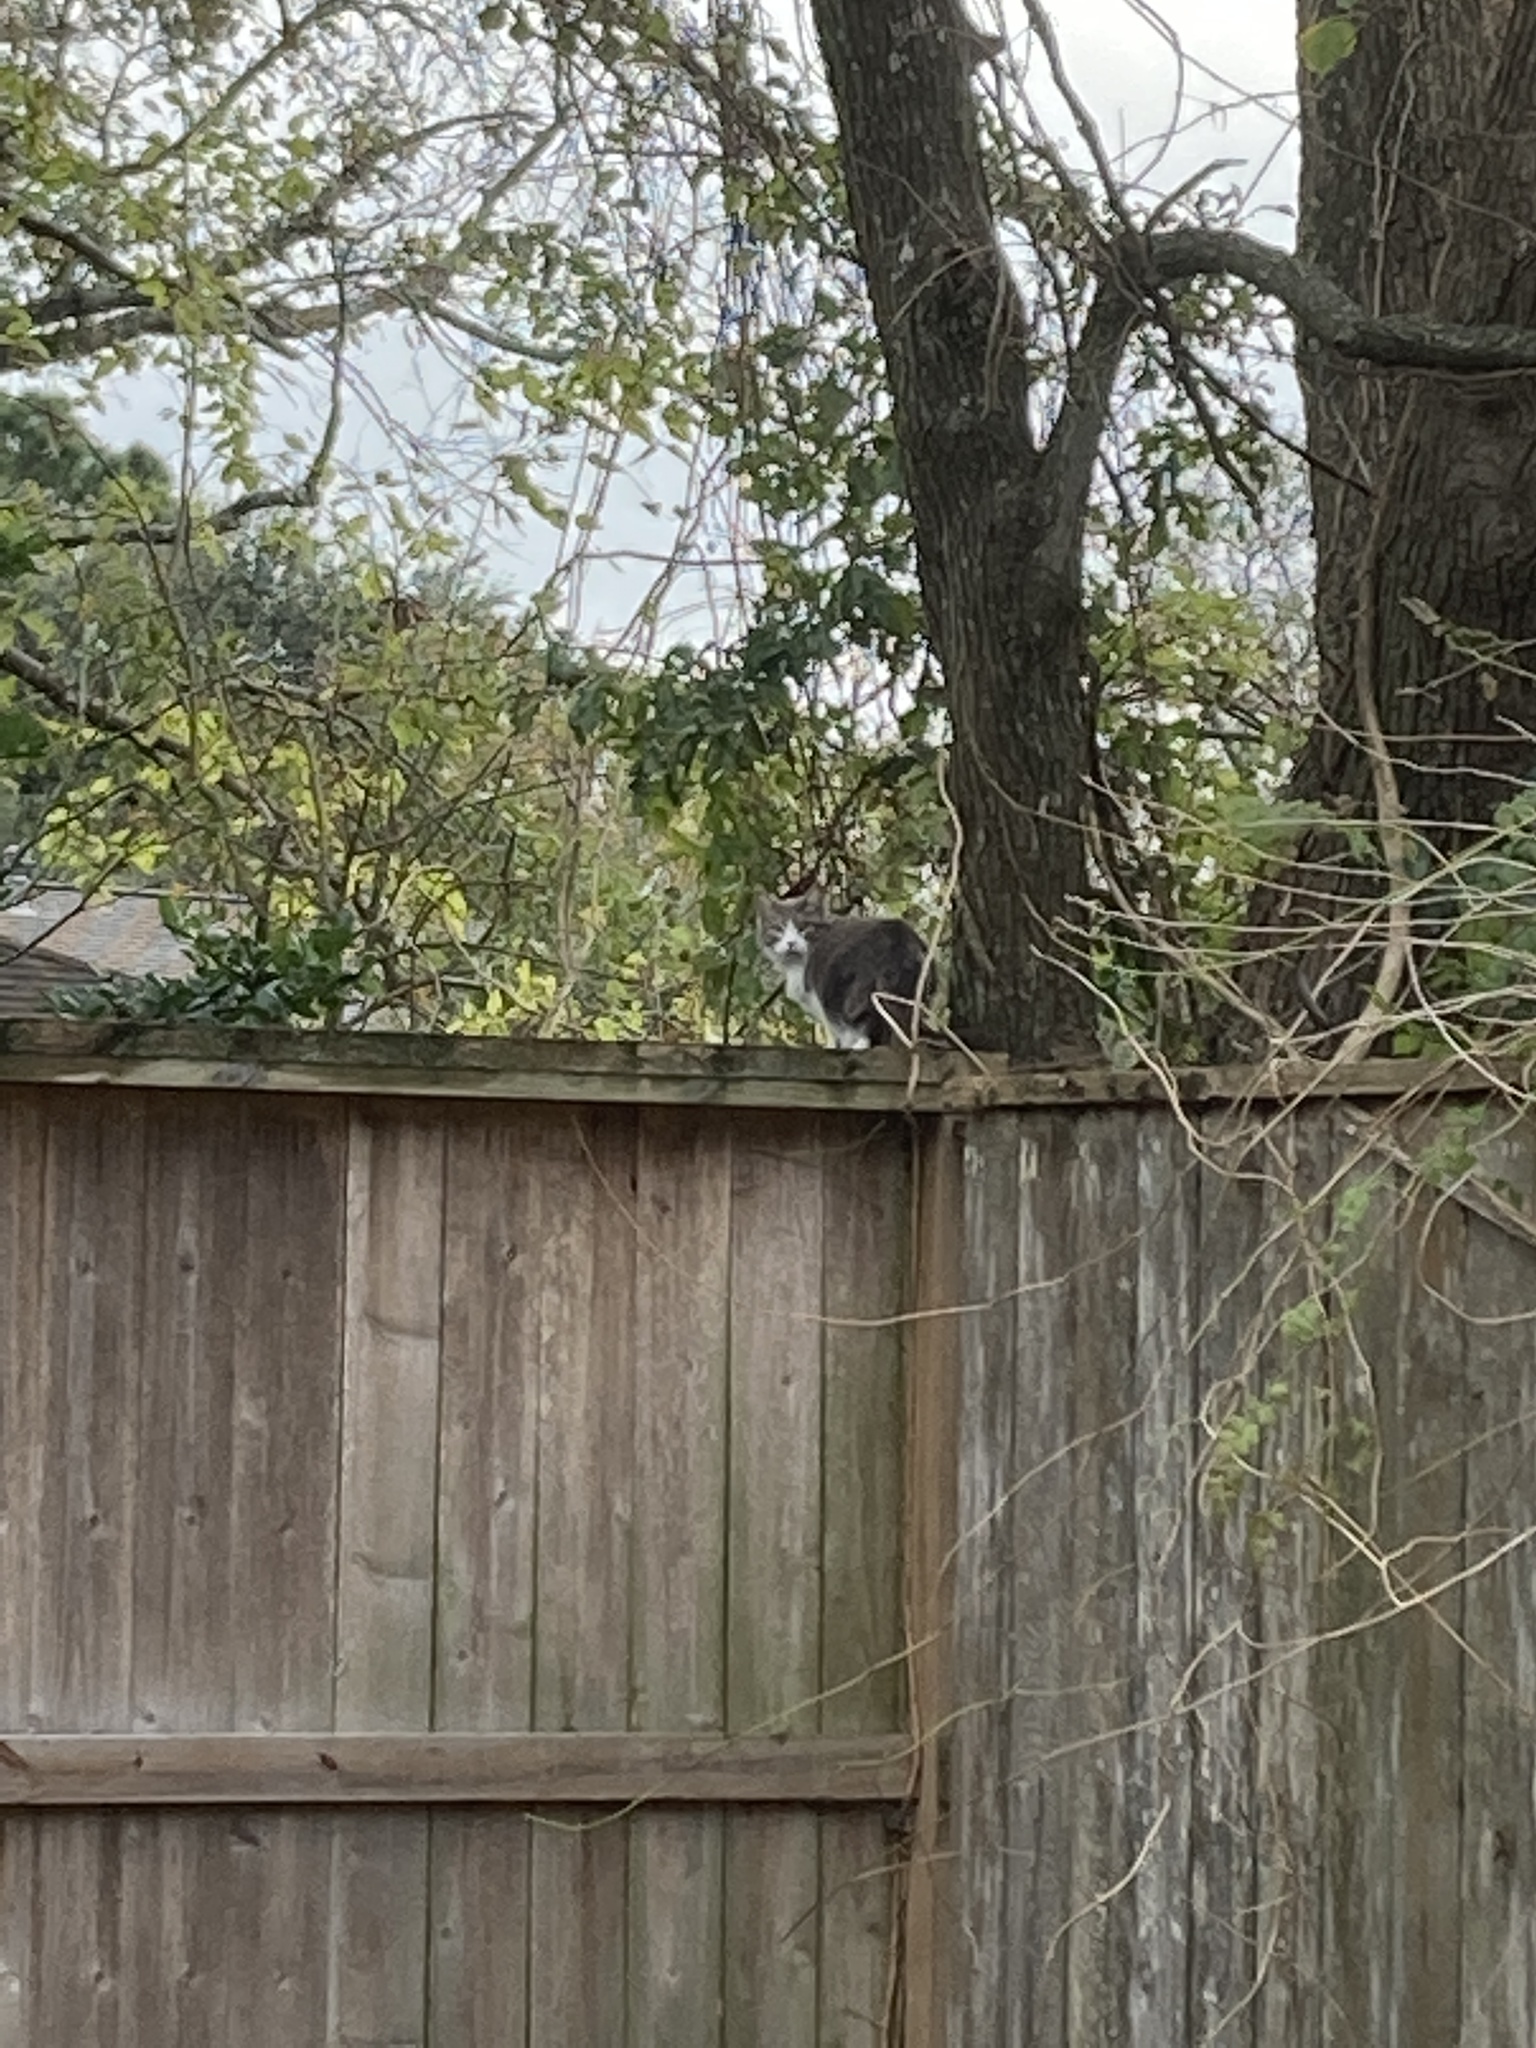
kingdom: Animalia
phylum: Chordata
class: Mammalia
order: Carnivora
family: Felidae
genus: Felis
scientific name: Felis catus
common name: Domestic cat
